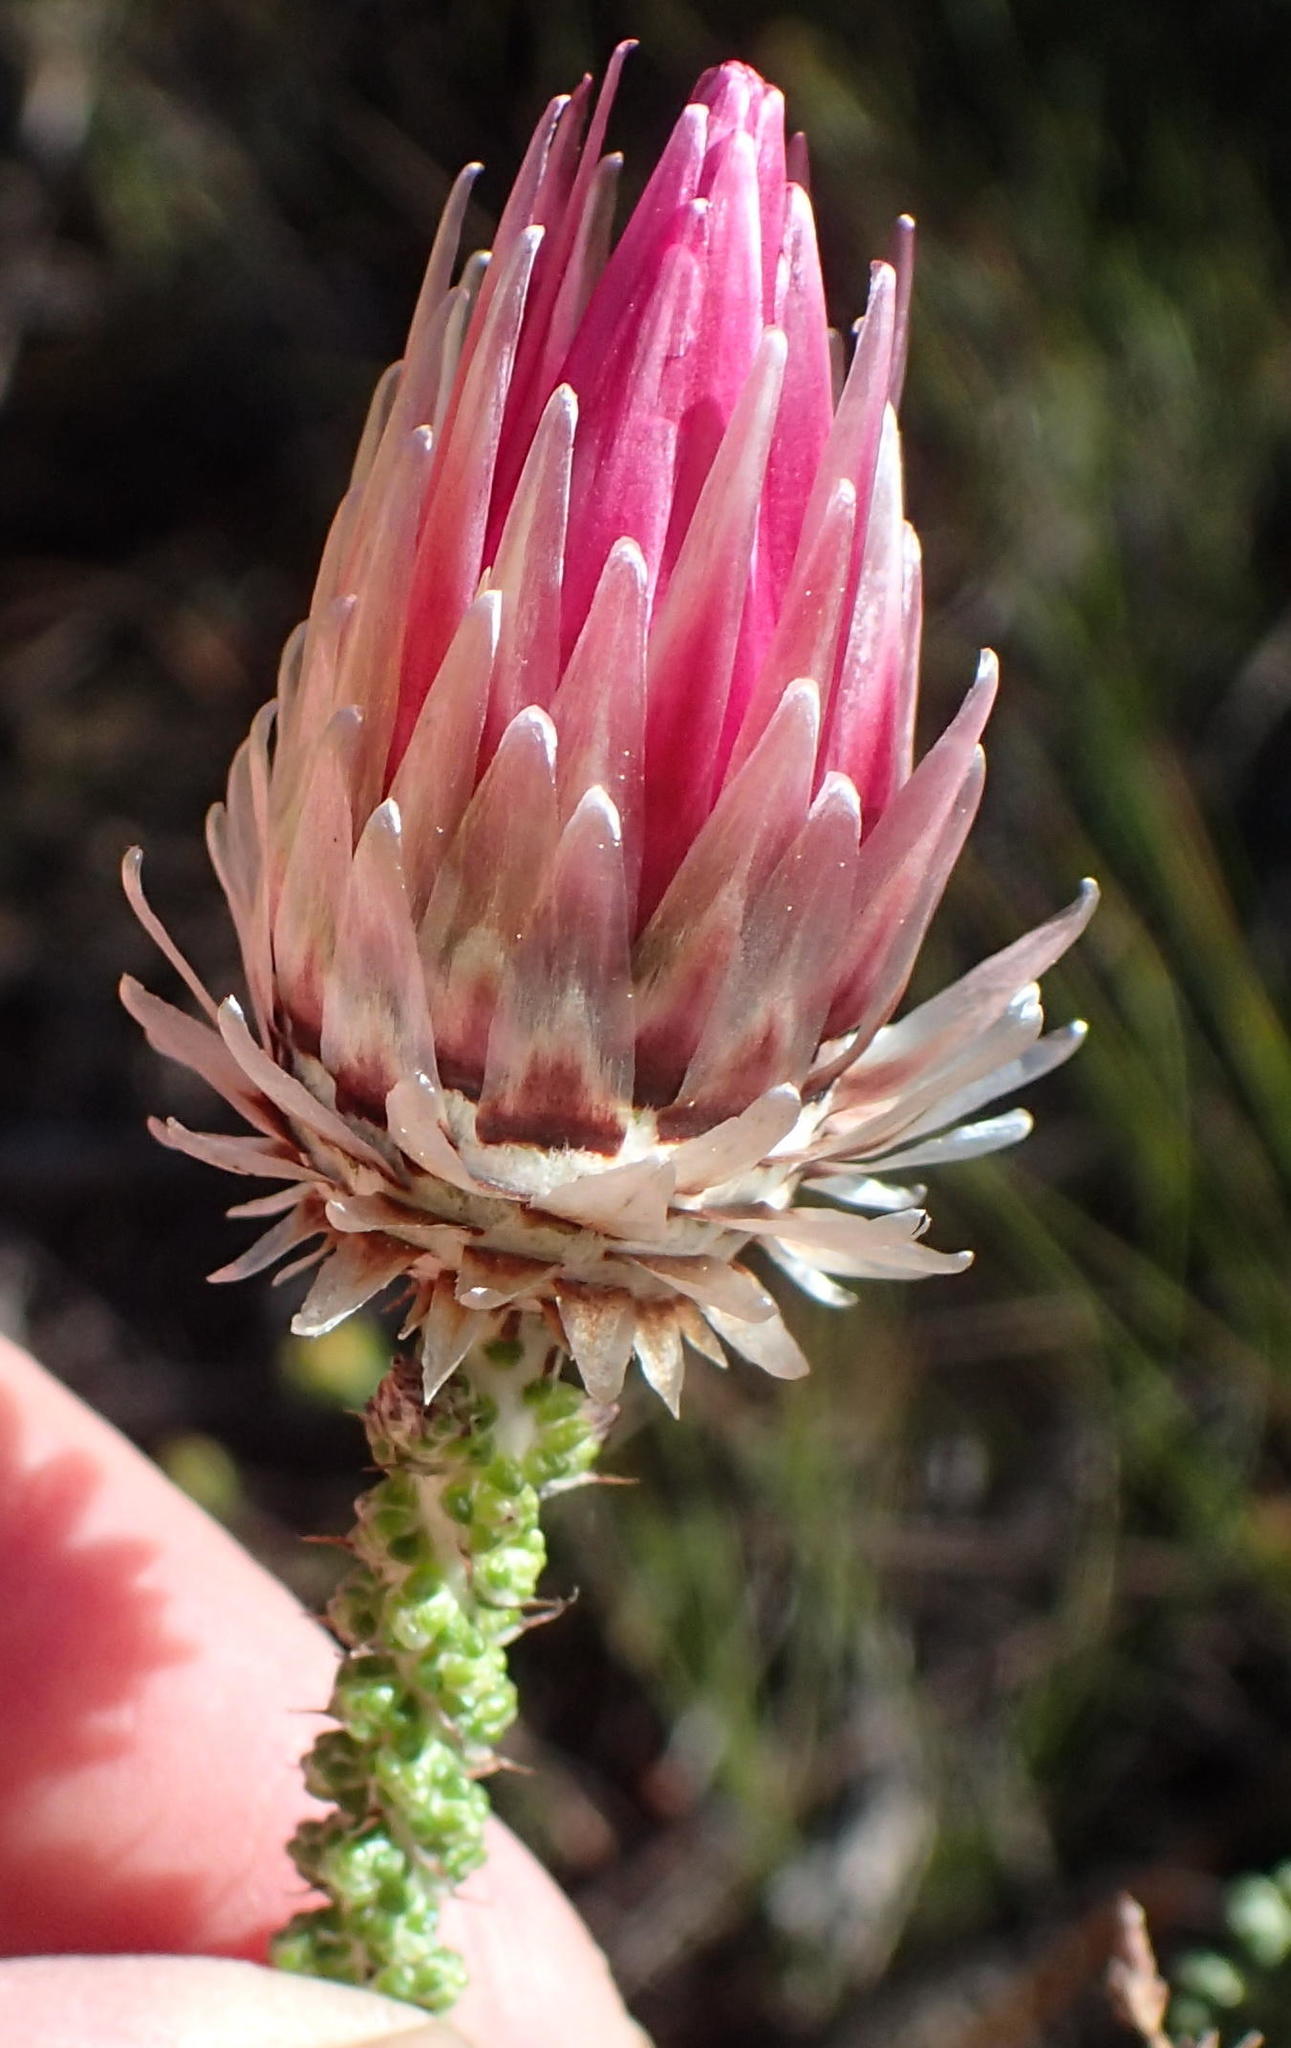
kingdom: Plantae
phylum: Tracheophyta
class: Magnoliopsida
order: Asterales
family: Asteraceae
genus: Phaenocoma
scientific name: Phaenocoma prolifera
